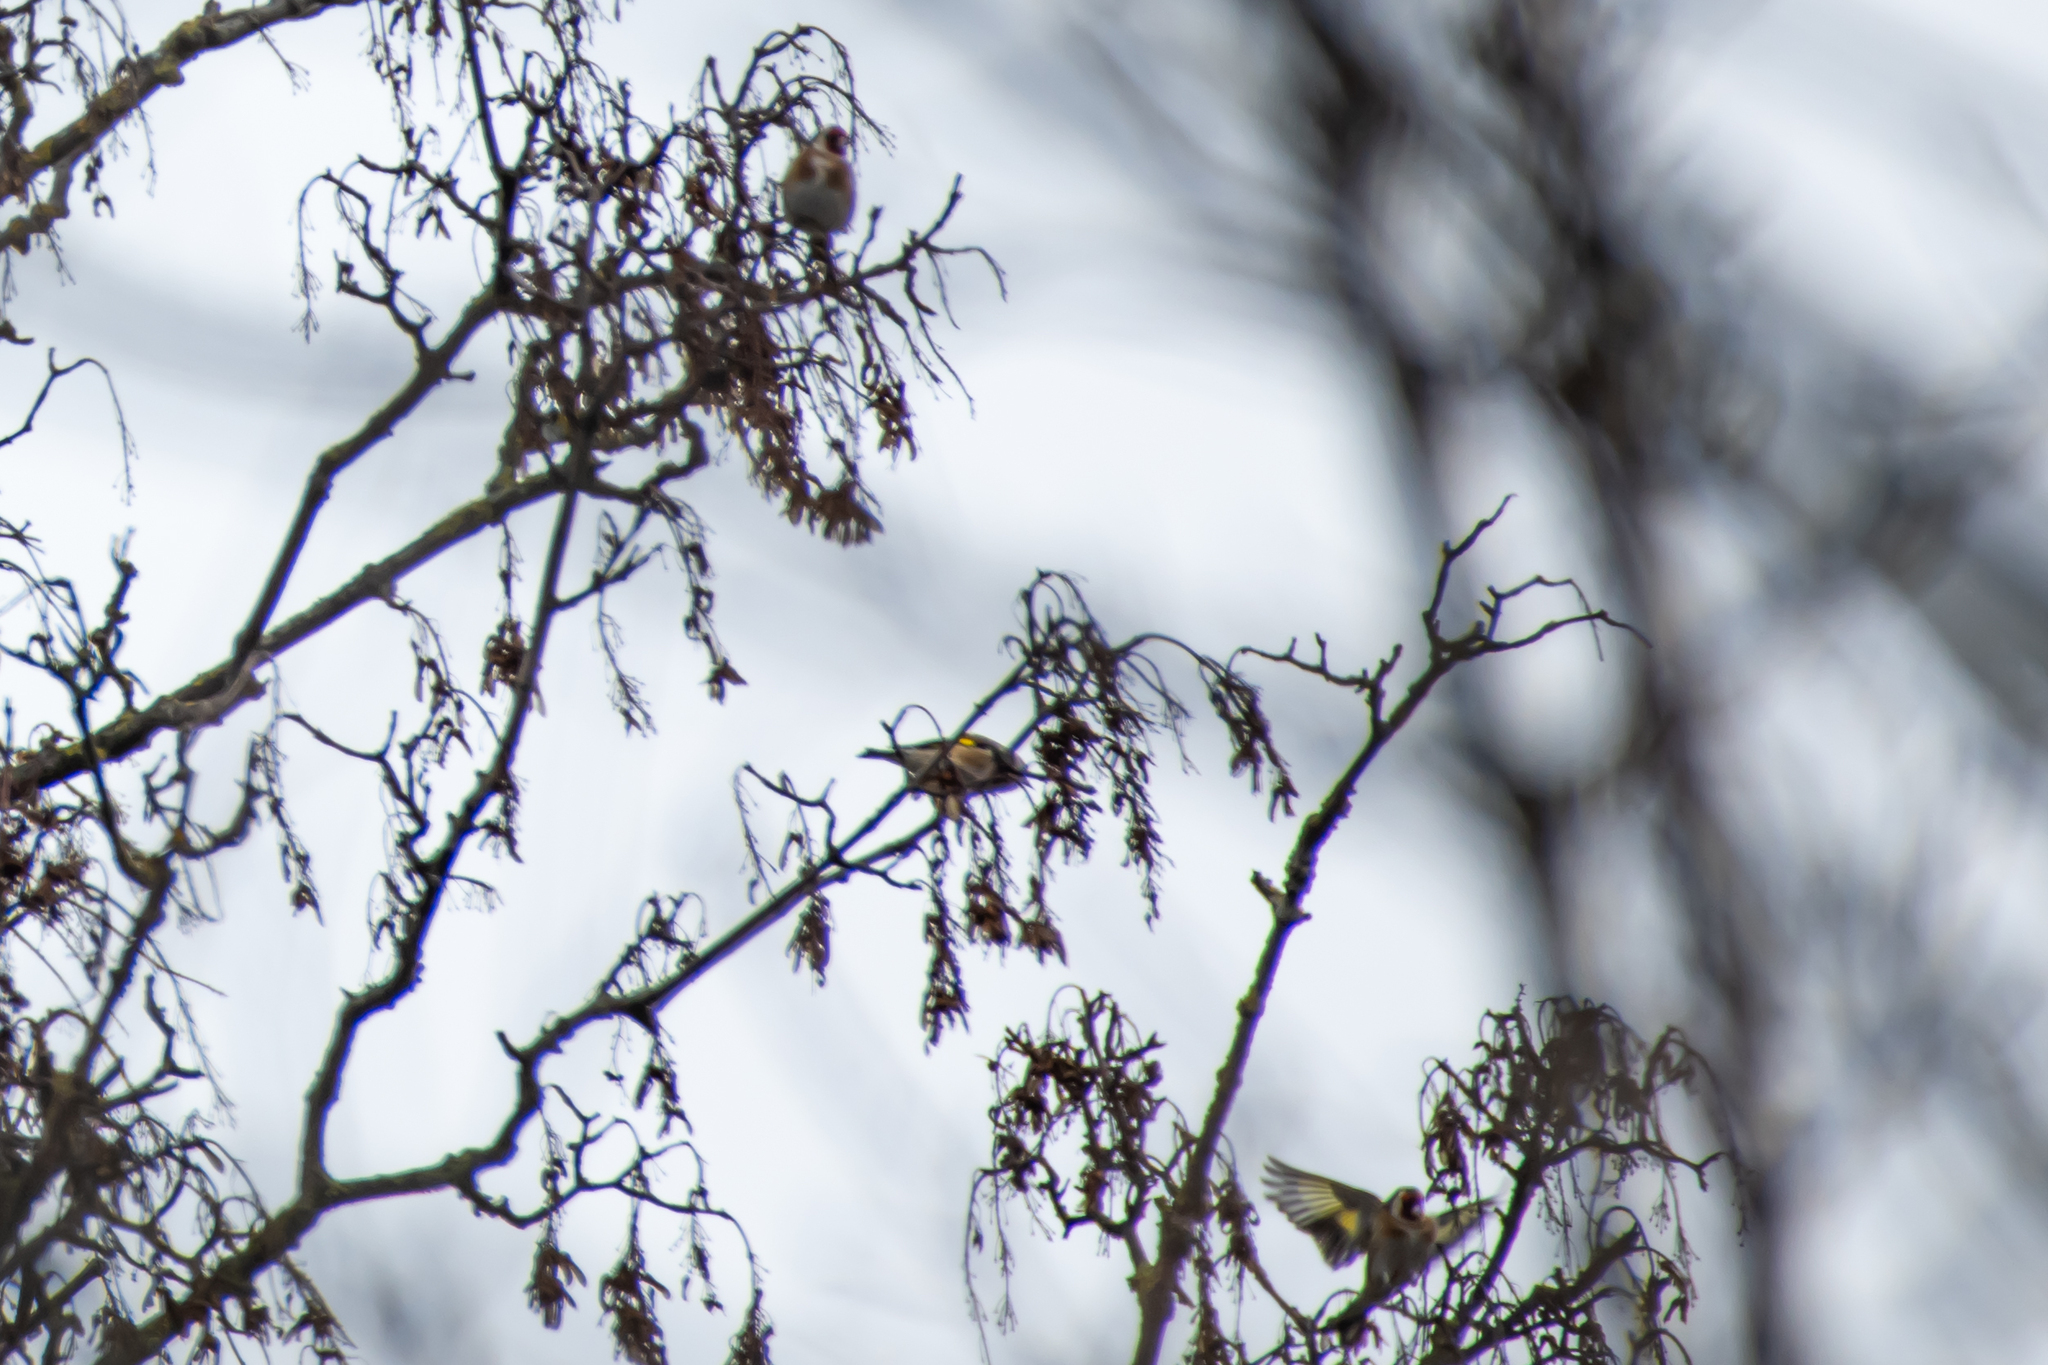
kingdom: Animalia
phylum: Chordata
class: Aves
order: Passeriformes
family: Fringillidae
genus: Carduelis
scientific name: Carduelis carduelis
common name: European goldfinch
